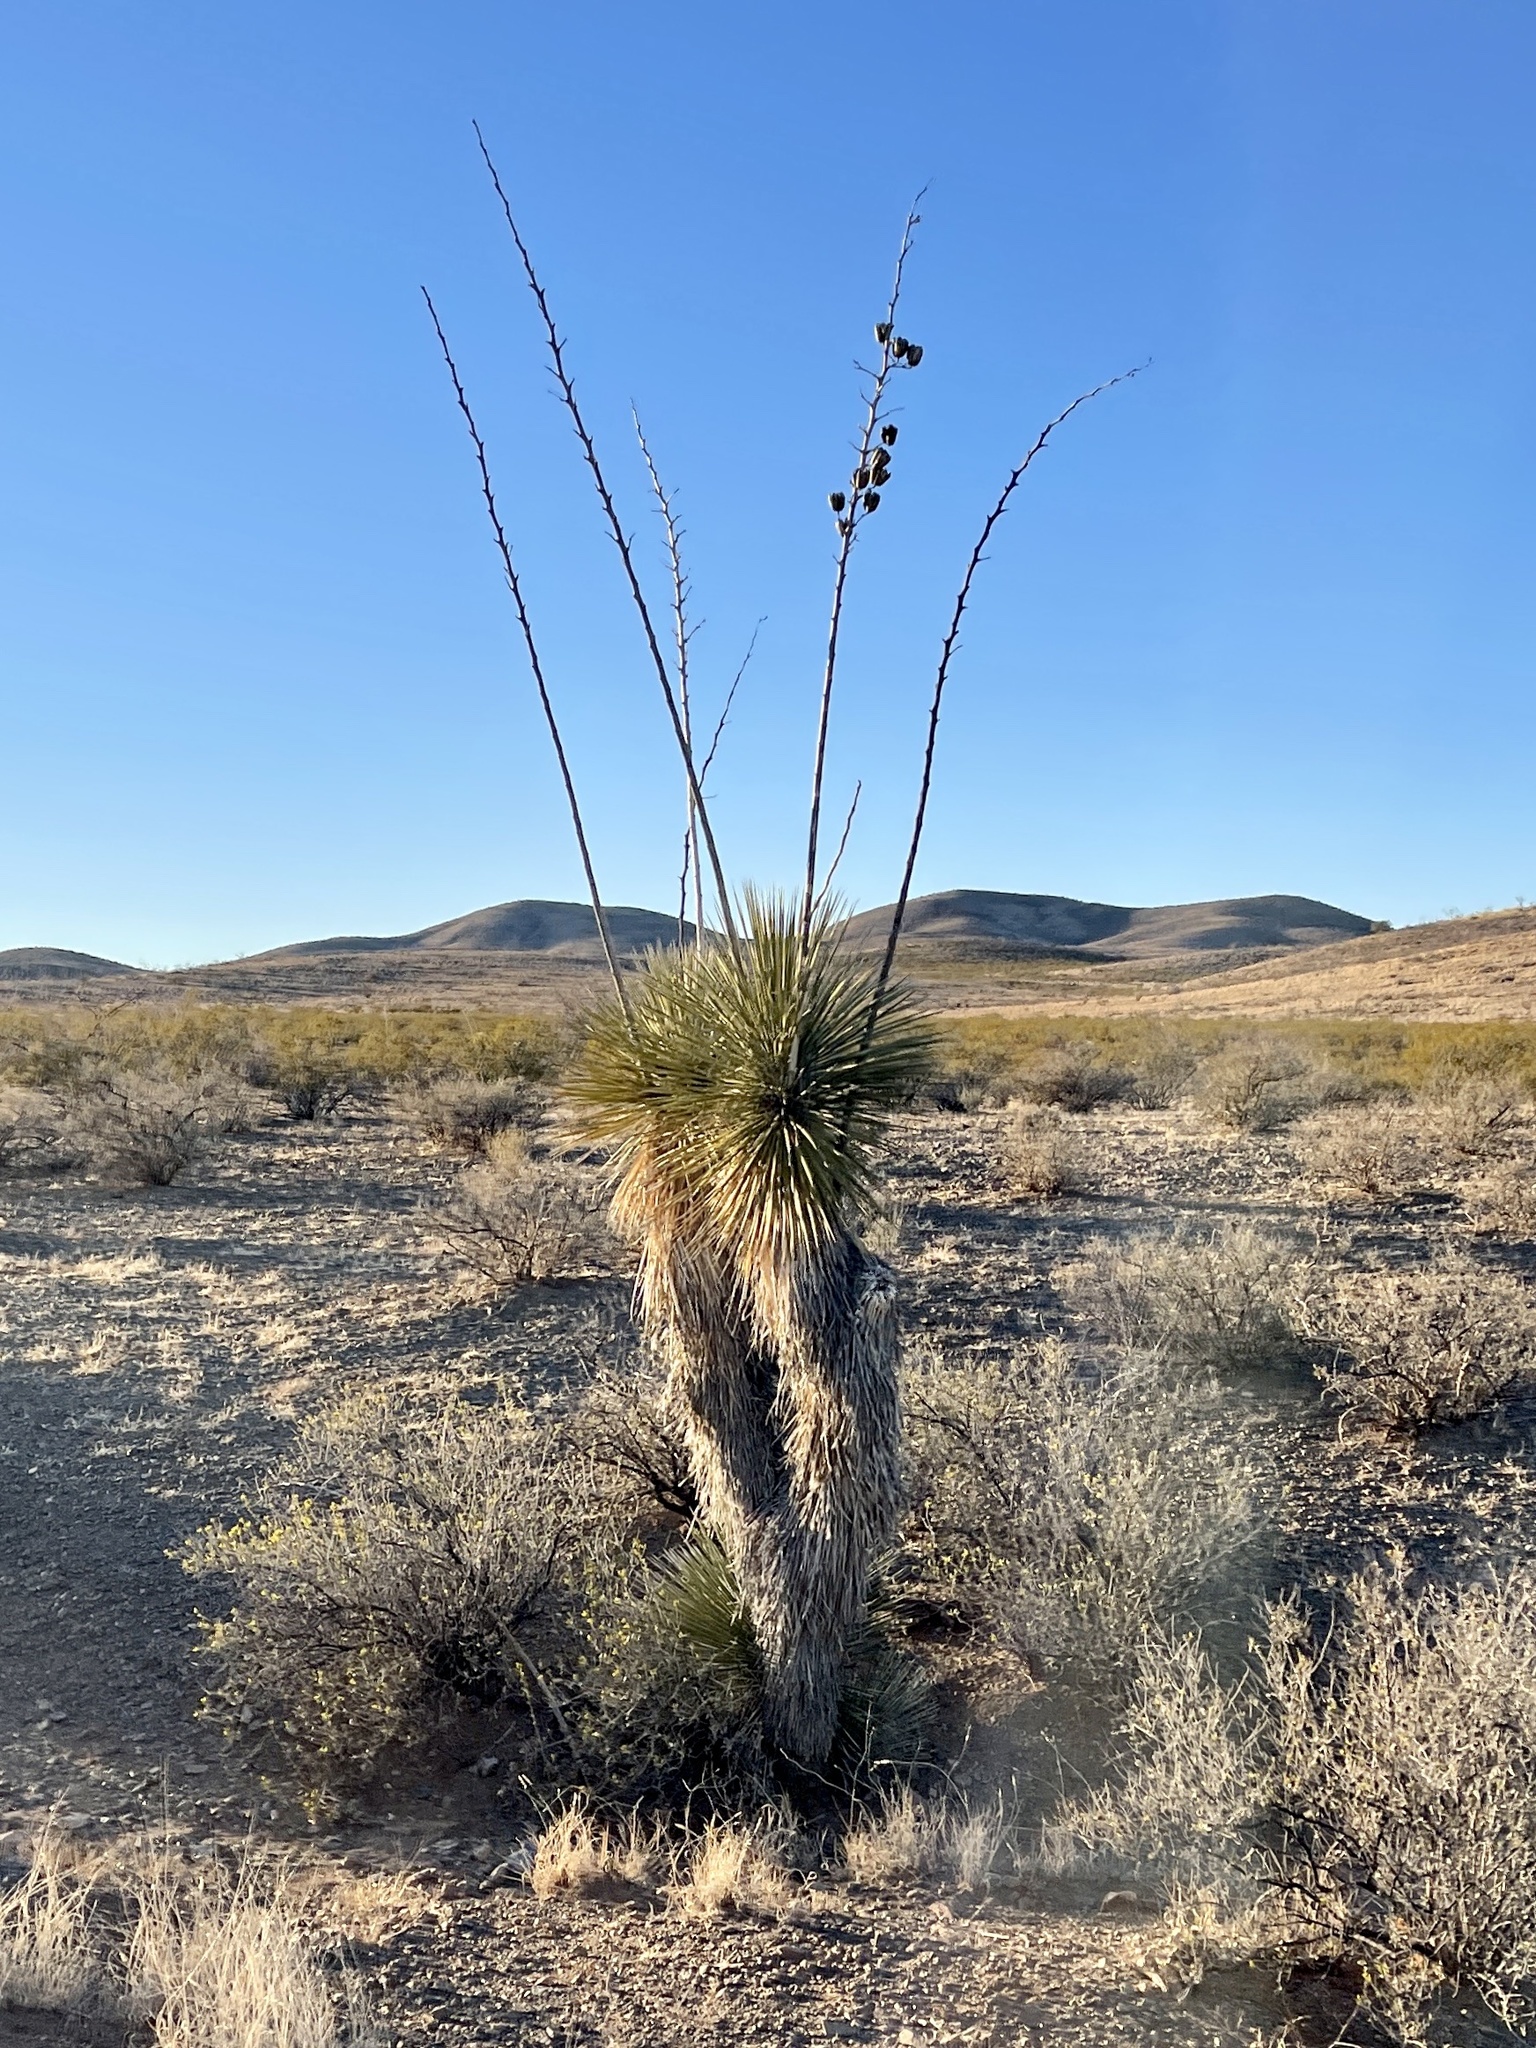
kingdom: Plantae
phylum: Tracheophyta
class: Liliopsida
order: Asparagales
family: Asparagaceae
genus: Yucca
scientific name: Yucca elata
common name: Palmella
